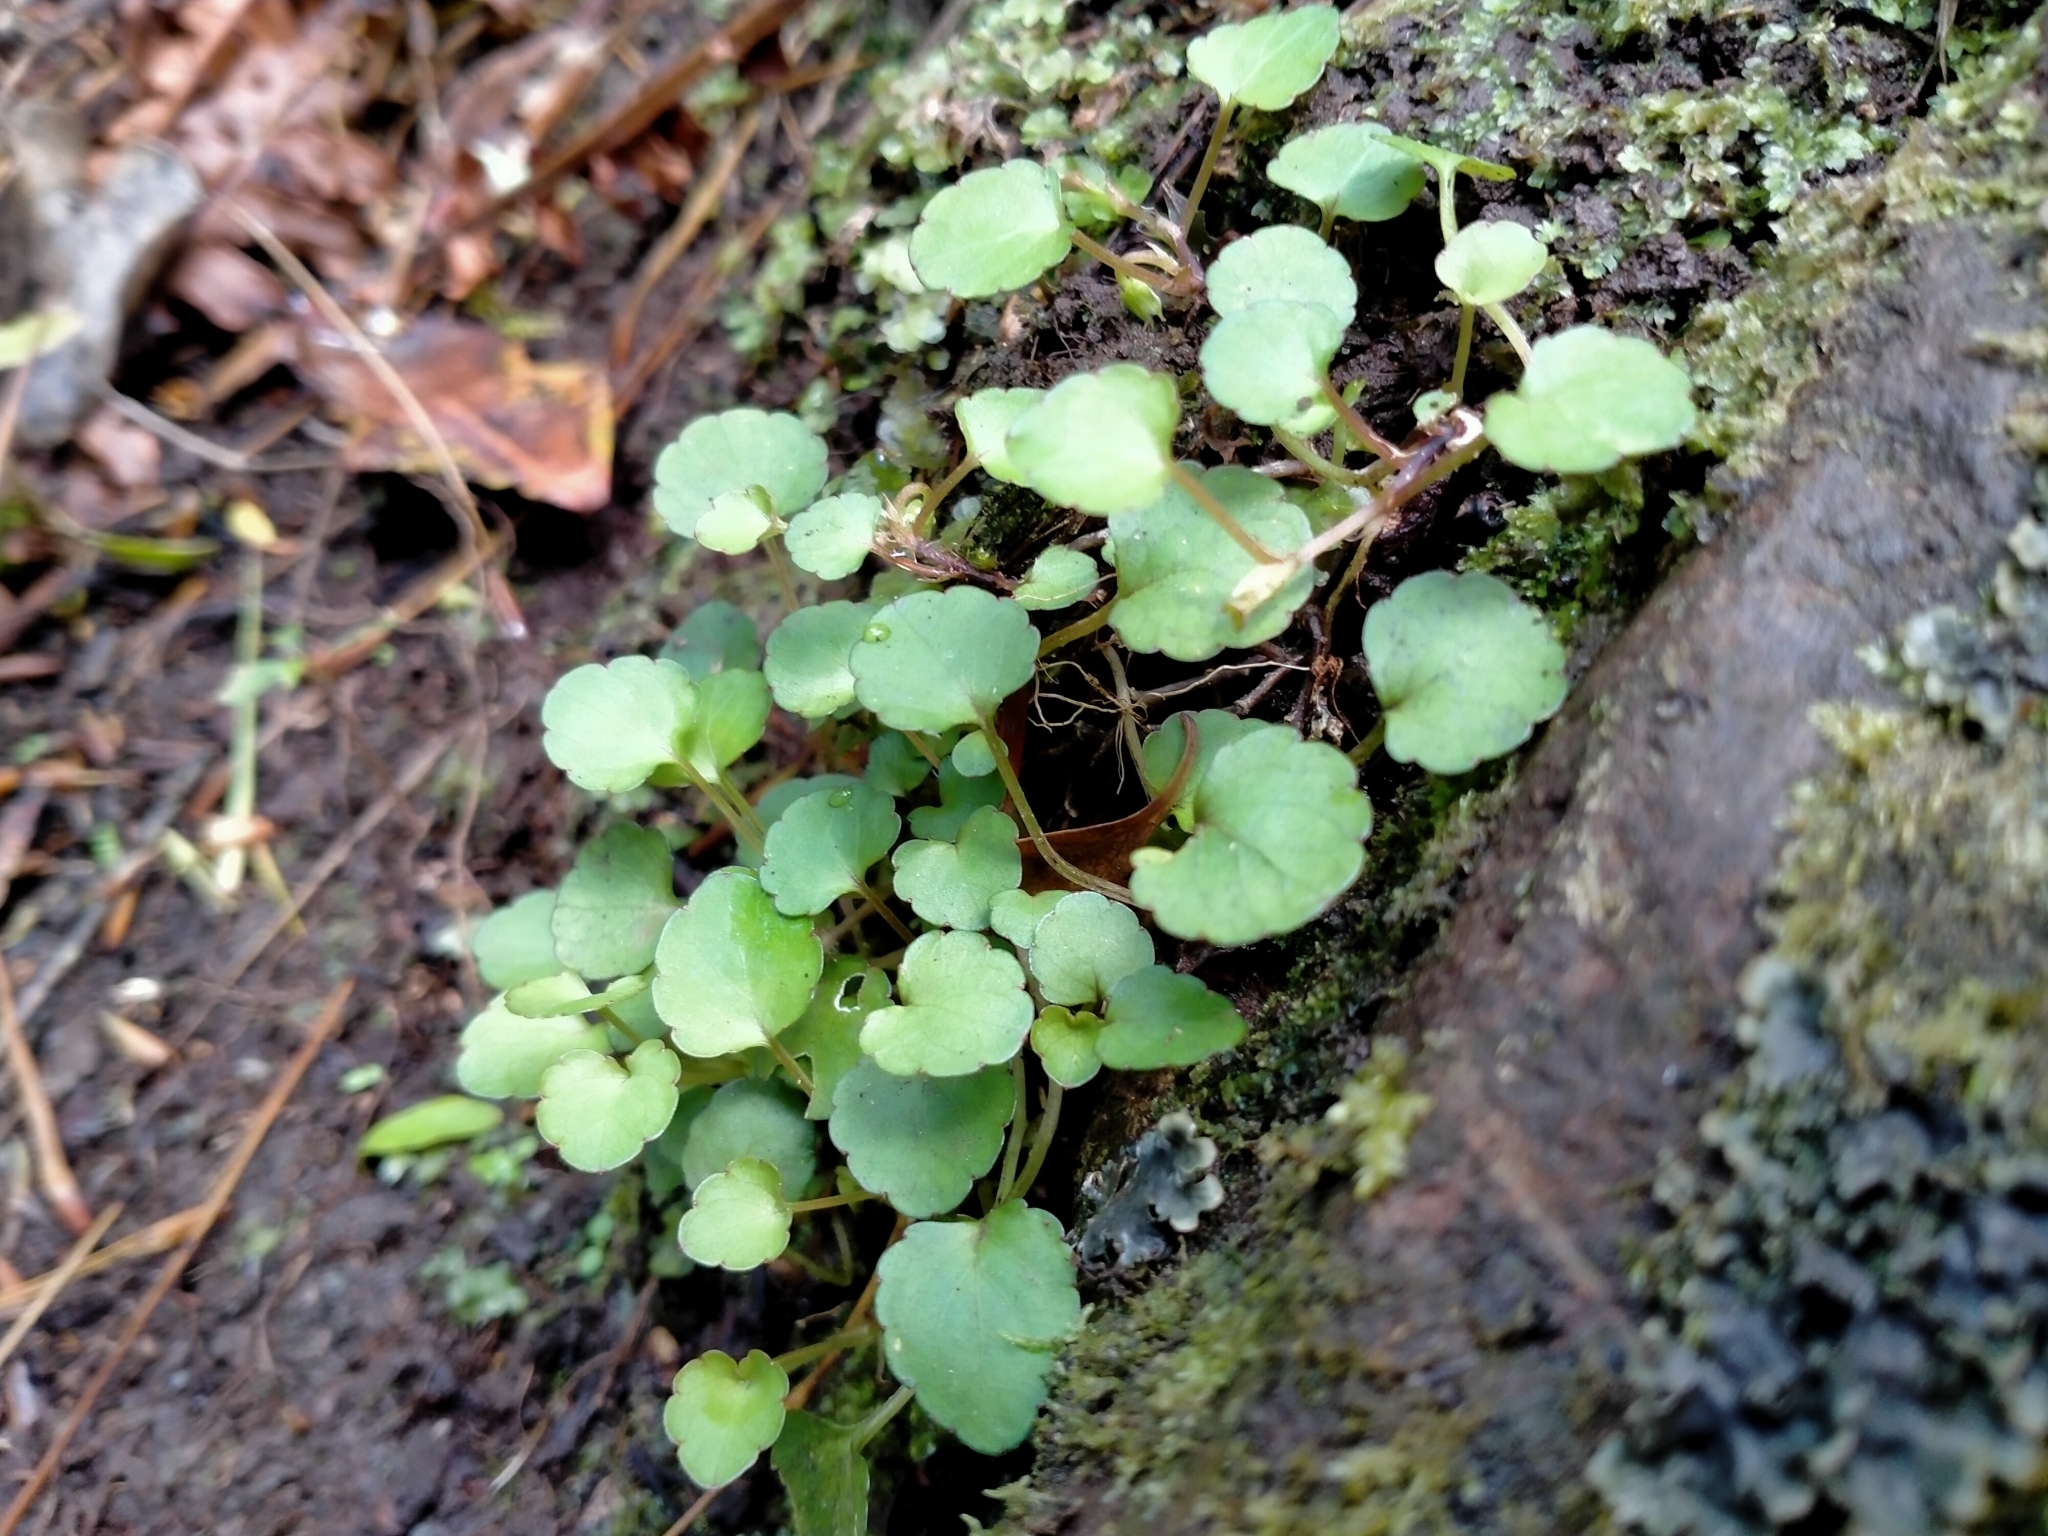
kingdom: Plantae
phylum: Tracheophyta
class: Magnoliopsida
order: Malpighiales
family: Violaceae
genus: Viola
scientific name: Viola filicaulis
